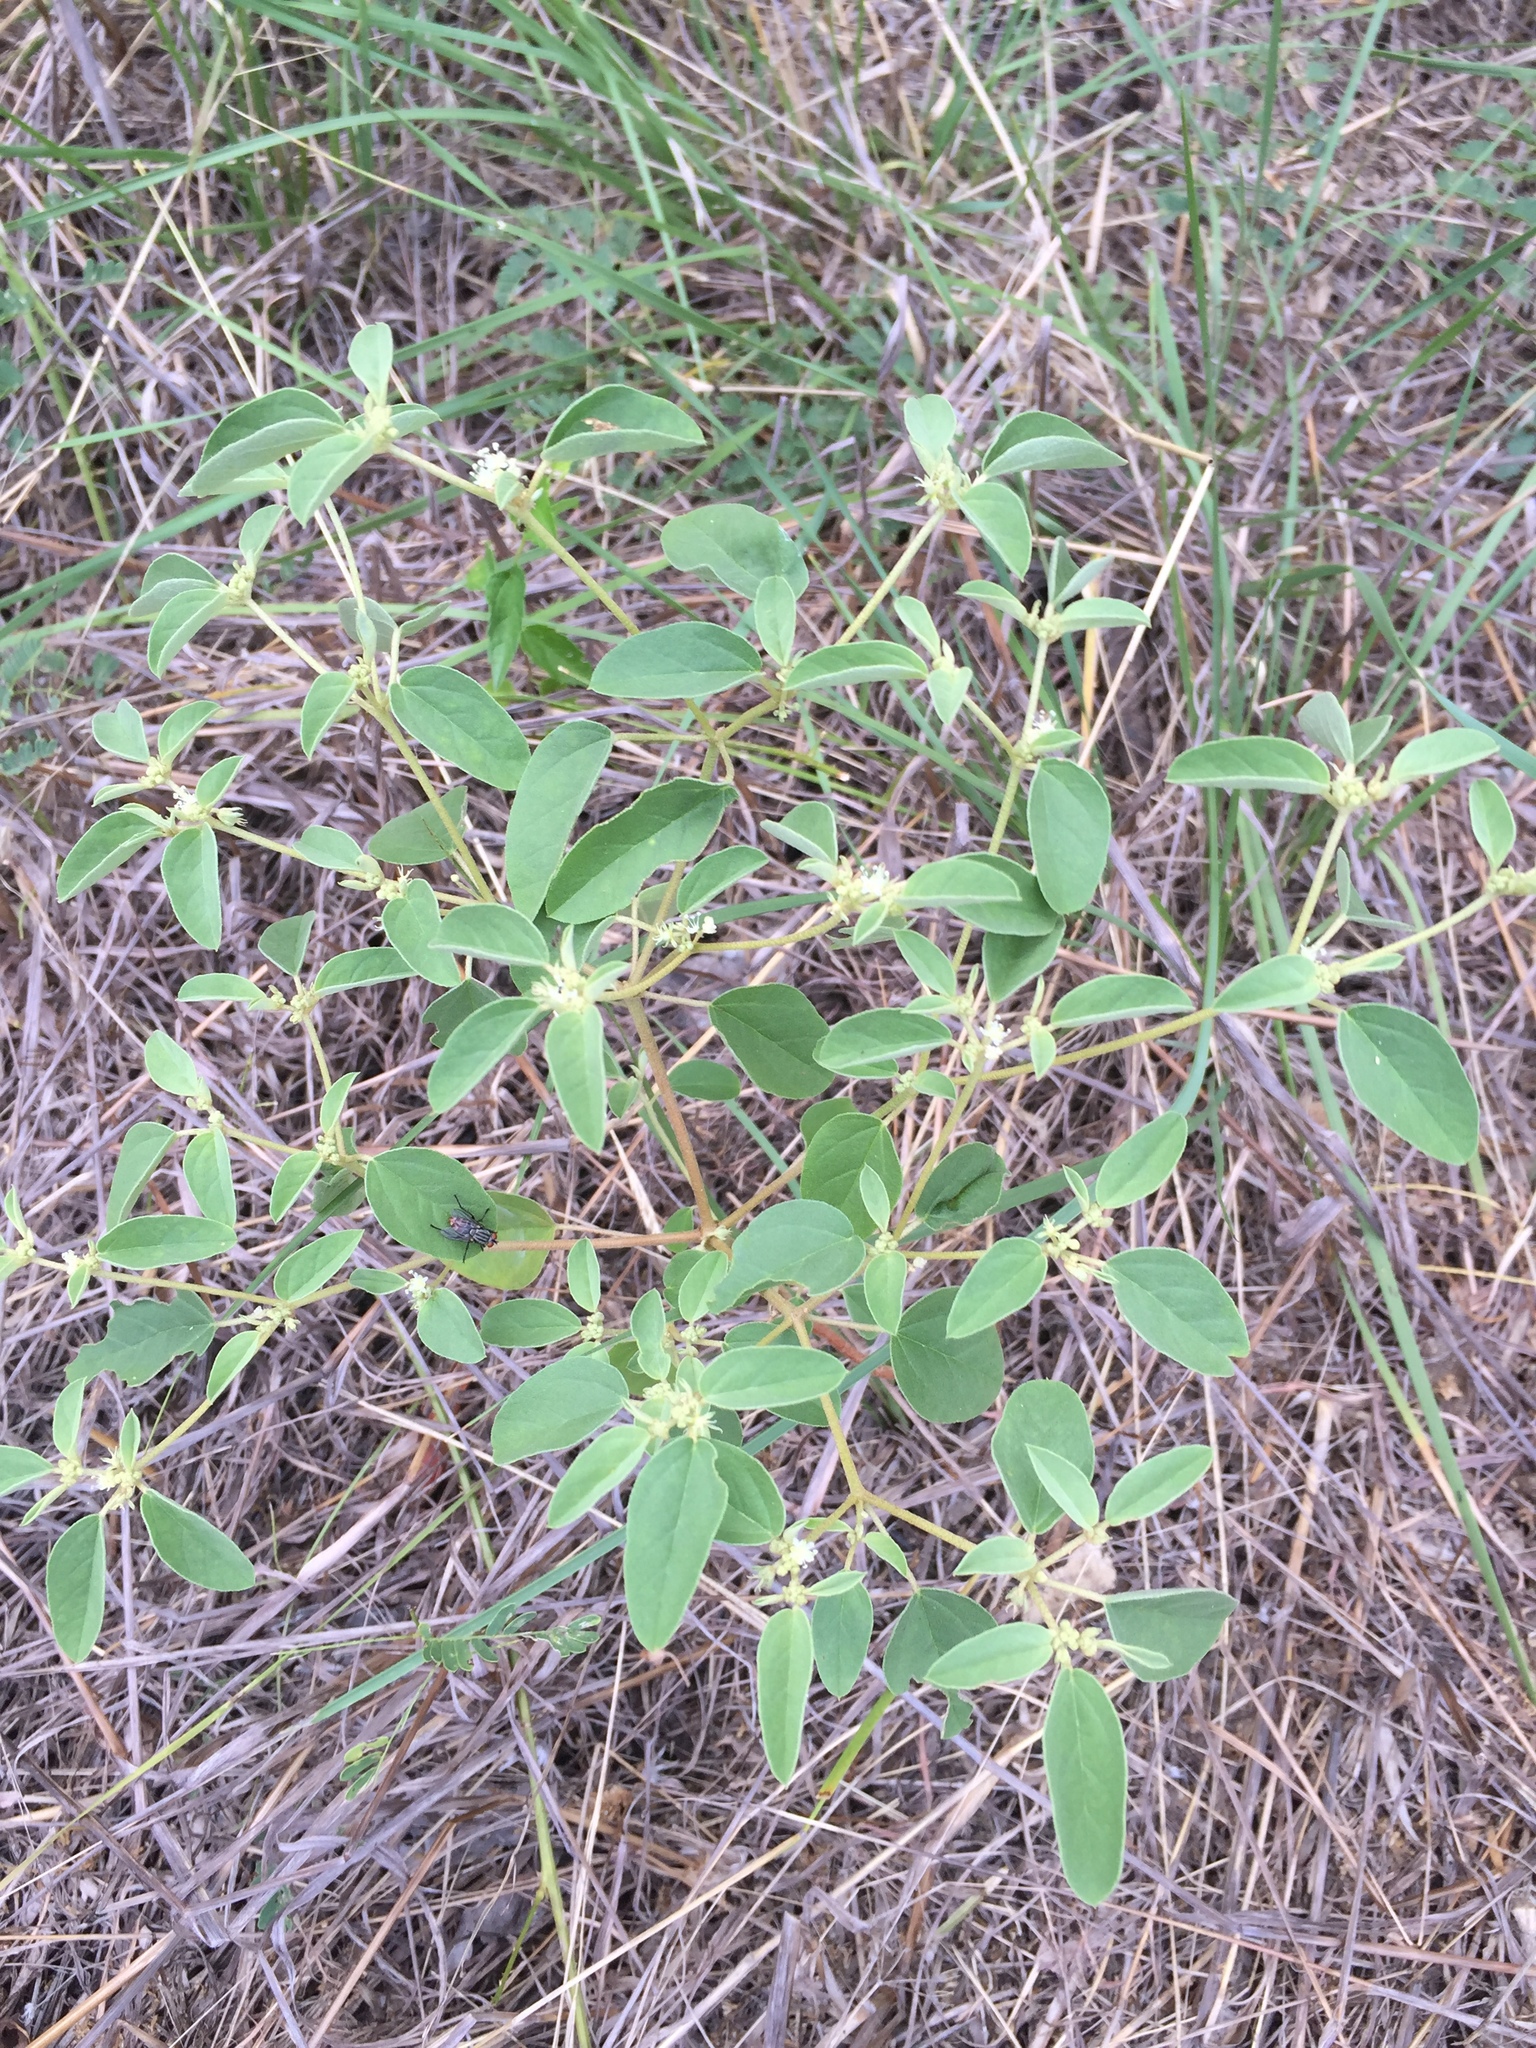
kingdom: Plantae
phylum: Tracheophyta
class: Magnoliopsida
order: Malpighiales
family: Euphorbiaceae
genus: Croton
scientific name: Croton monanthogynus
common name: One-seed croton
